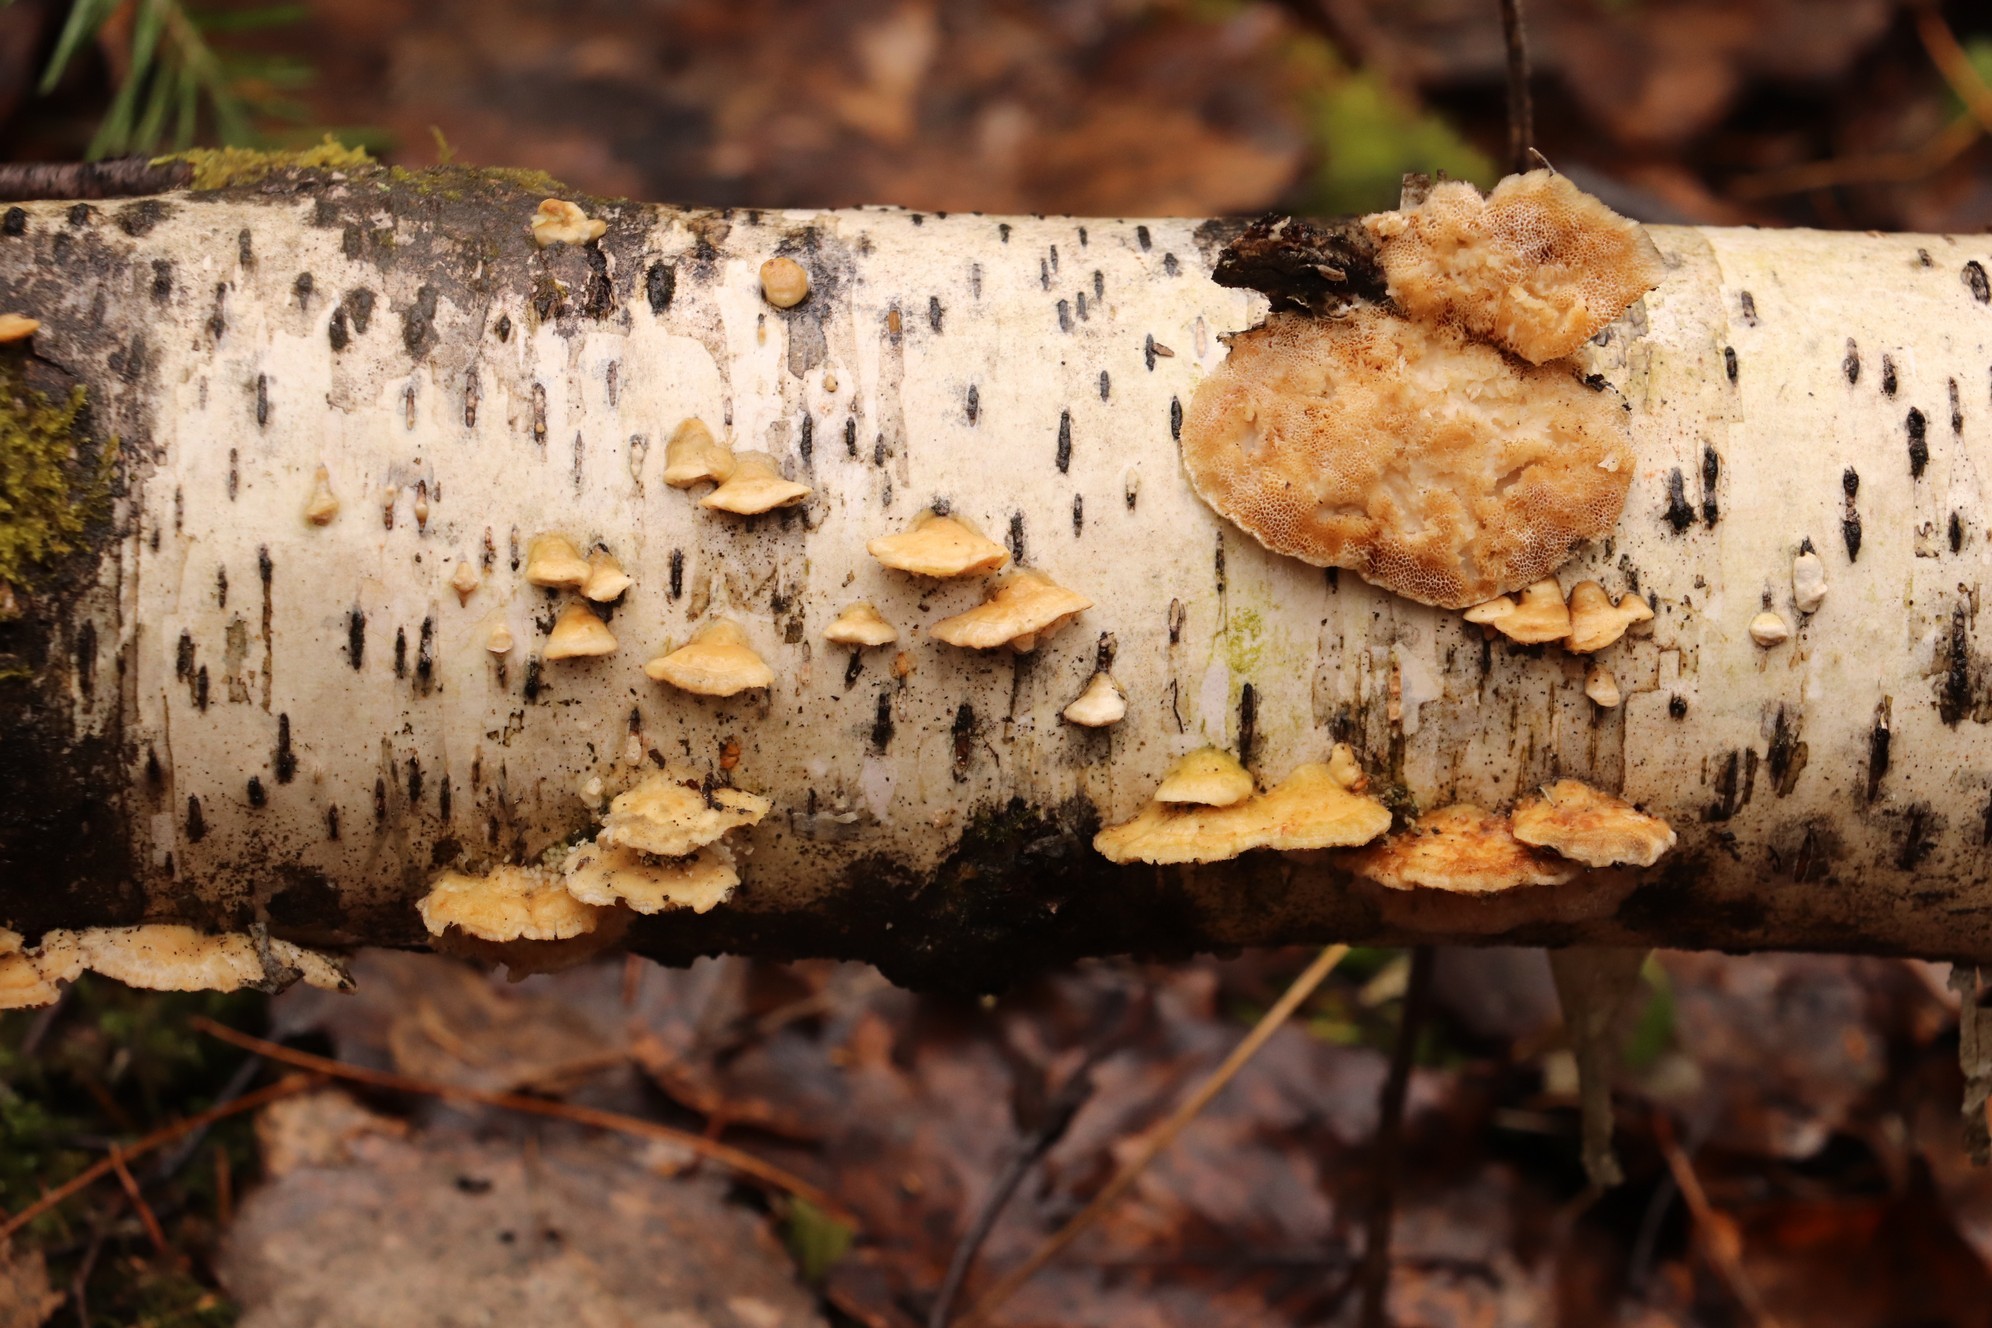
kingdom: Fungi
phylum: Basidiomycota
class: Agaricomycetes
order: Polyporales
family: Polyporaceae
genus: Trametes
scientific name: Trametes pubescens
